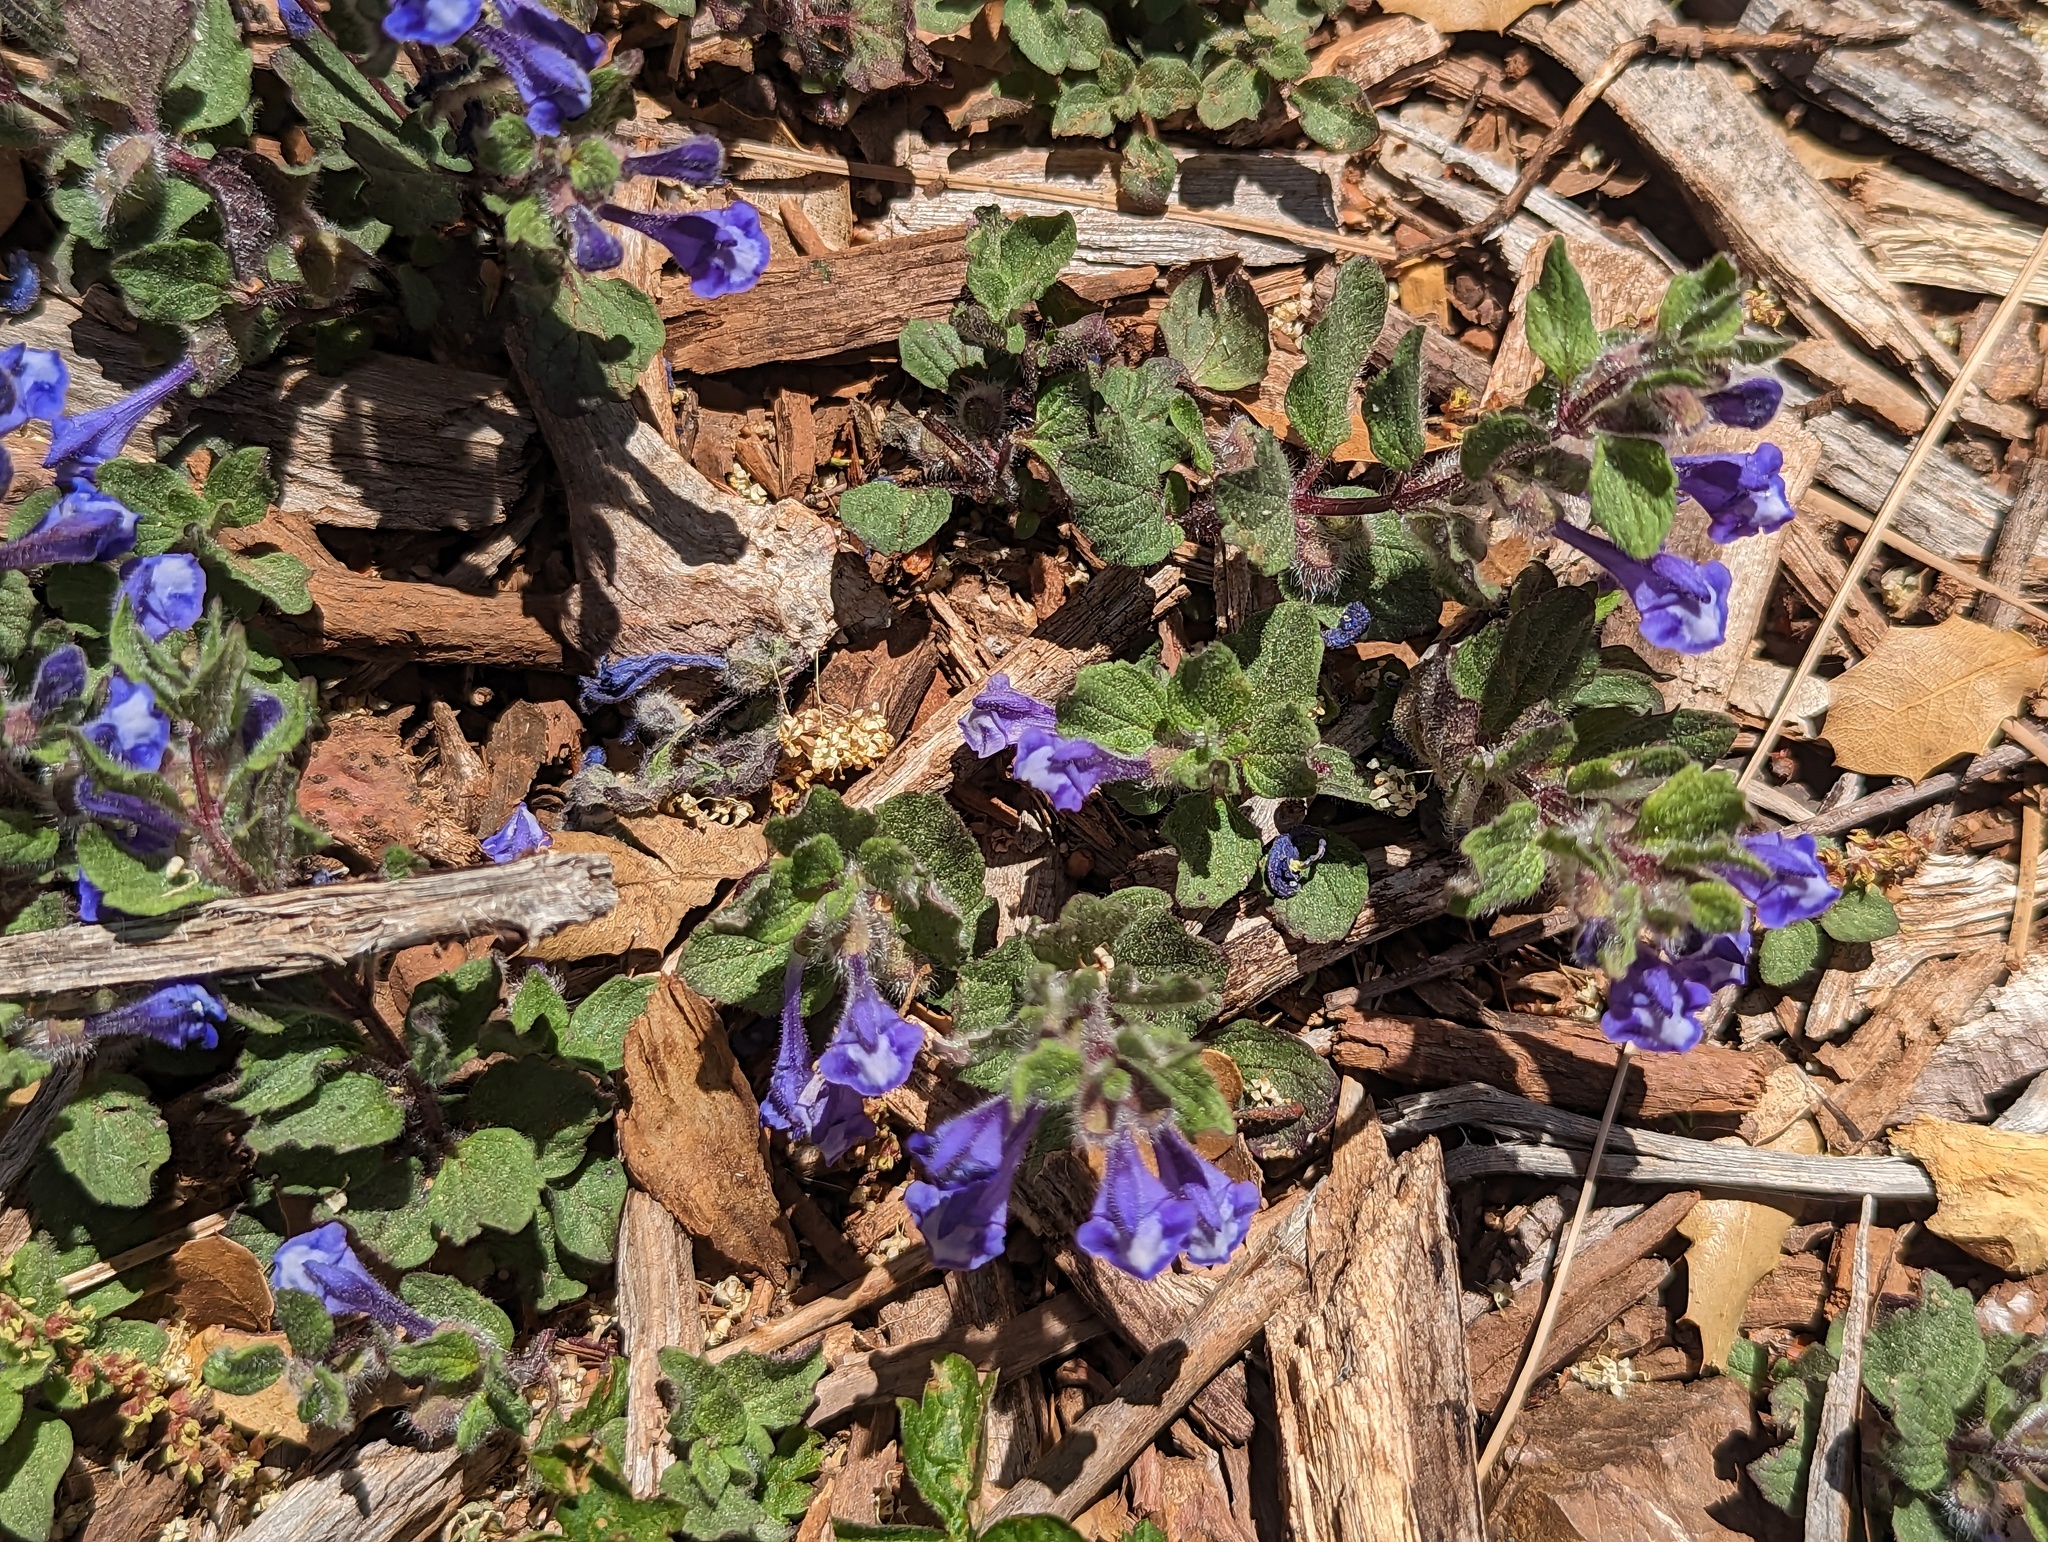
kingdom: Plantae
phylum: Tracheophyta
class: Magnoliopsida
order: Lamiales
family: Lamiaceae
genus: Scutellaria
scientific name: Scutellaria tuberosa
